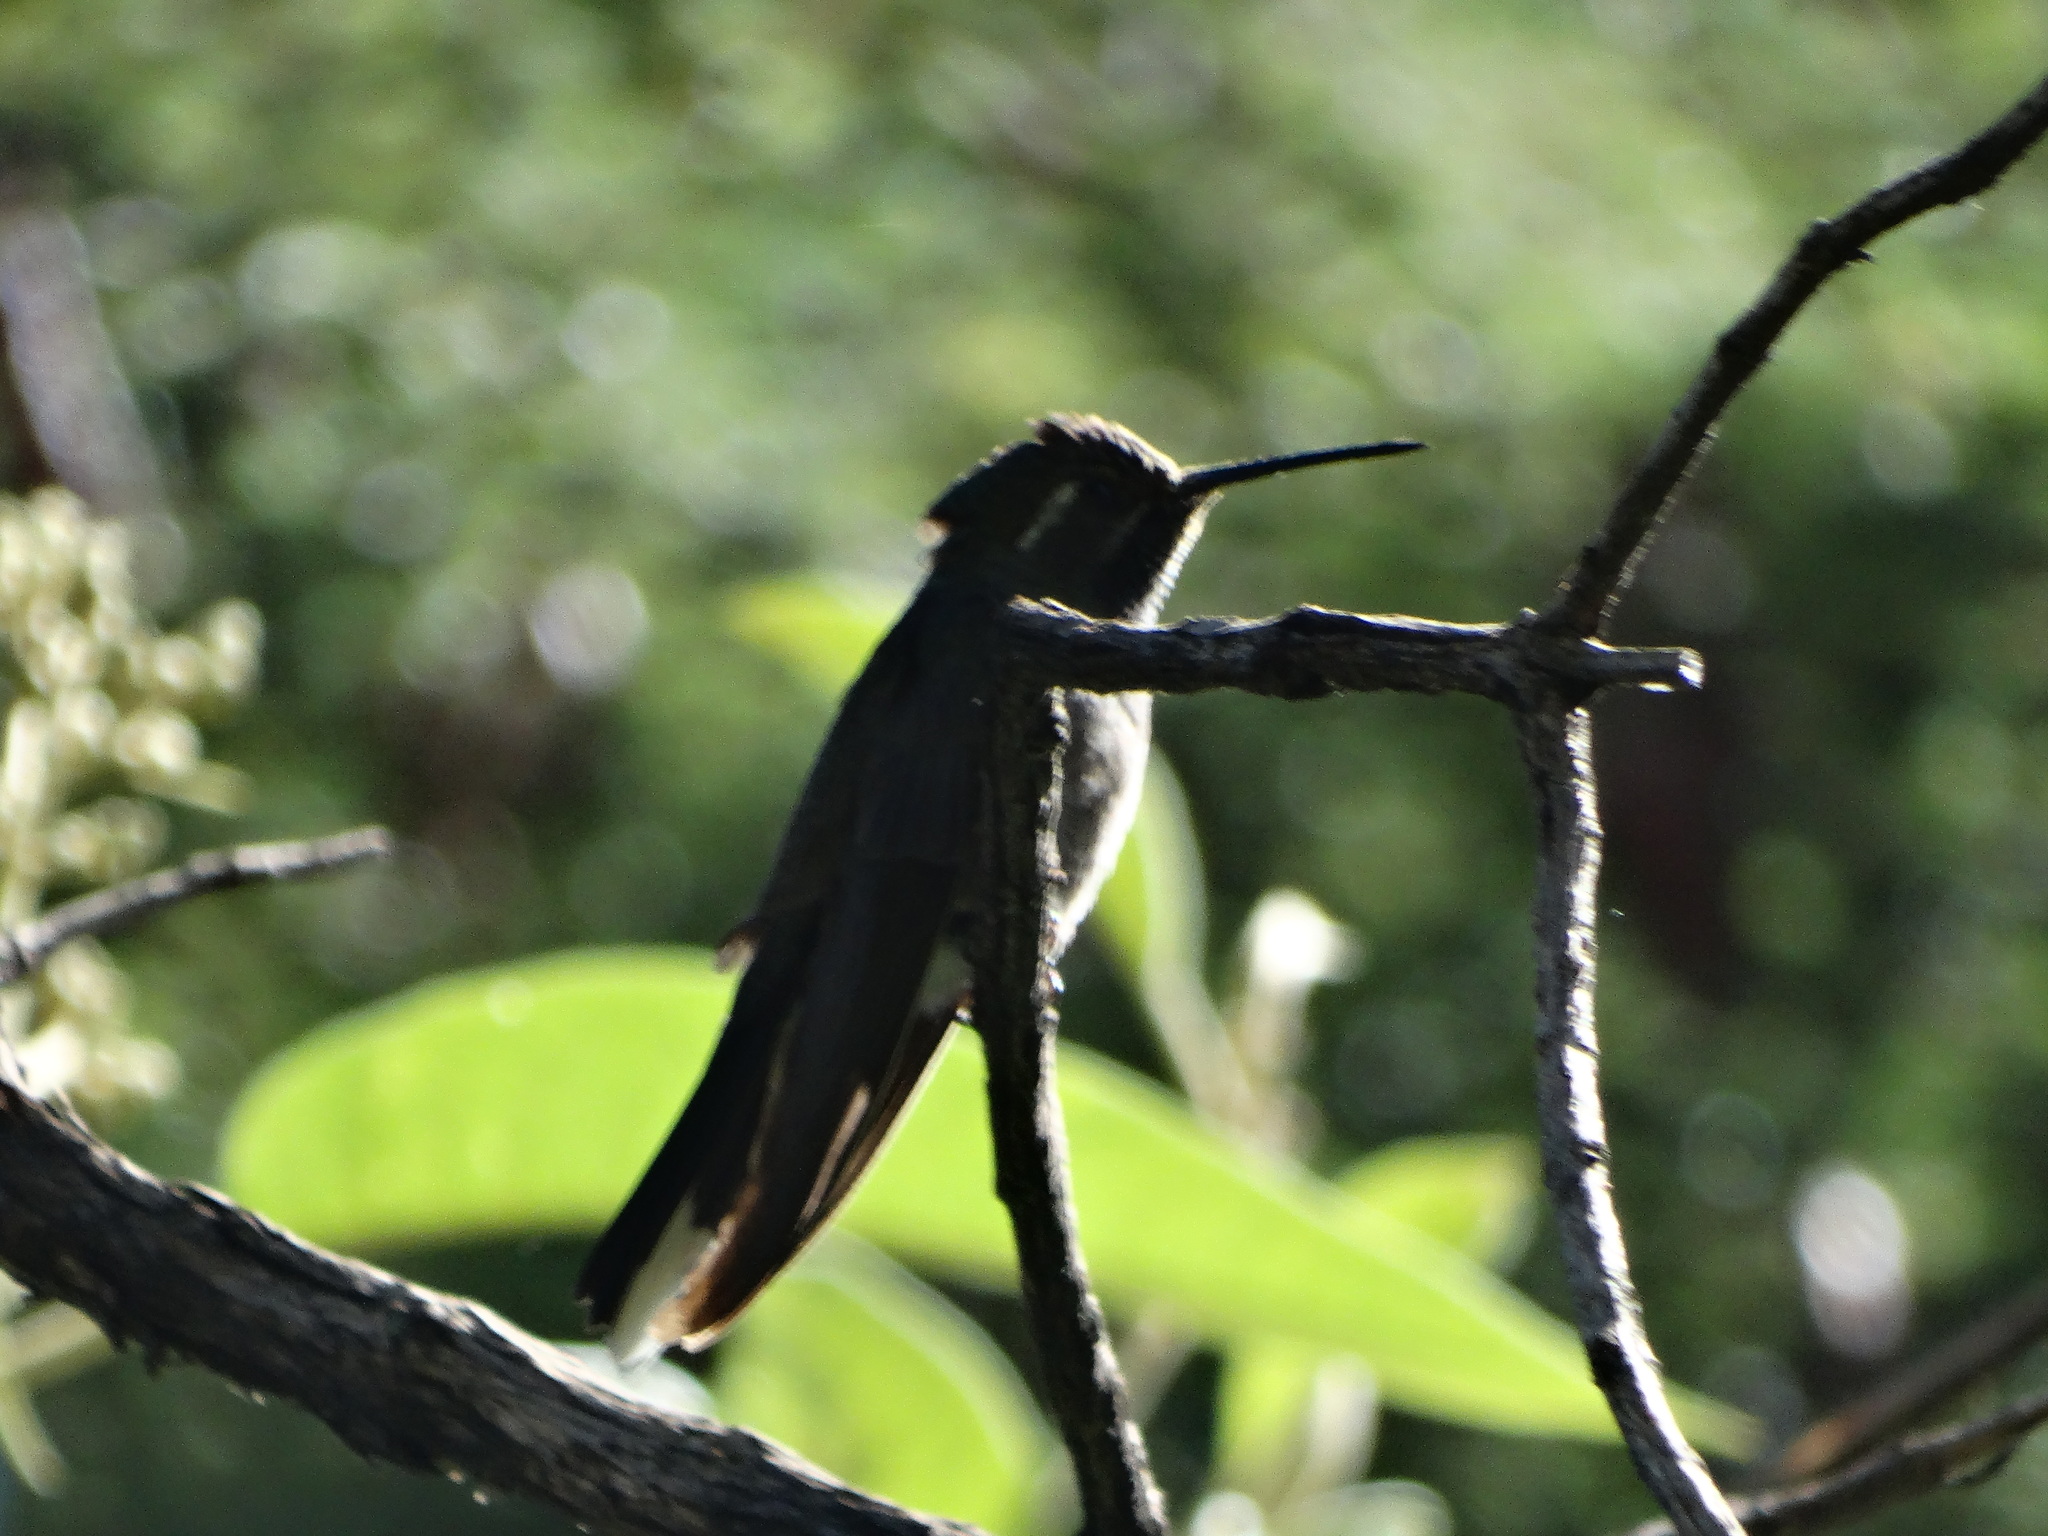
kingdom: Animalia
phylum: Chordata
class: Aves
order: Apodiformes
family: Trochilidae
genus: Lampornis
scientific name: Lampornis clemenciae
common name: Blue-throated mountaingem
